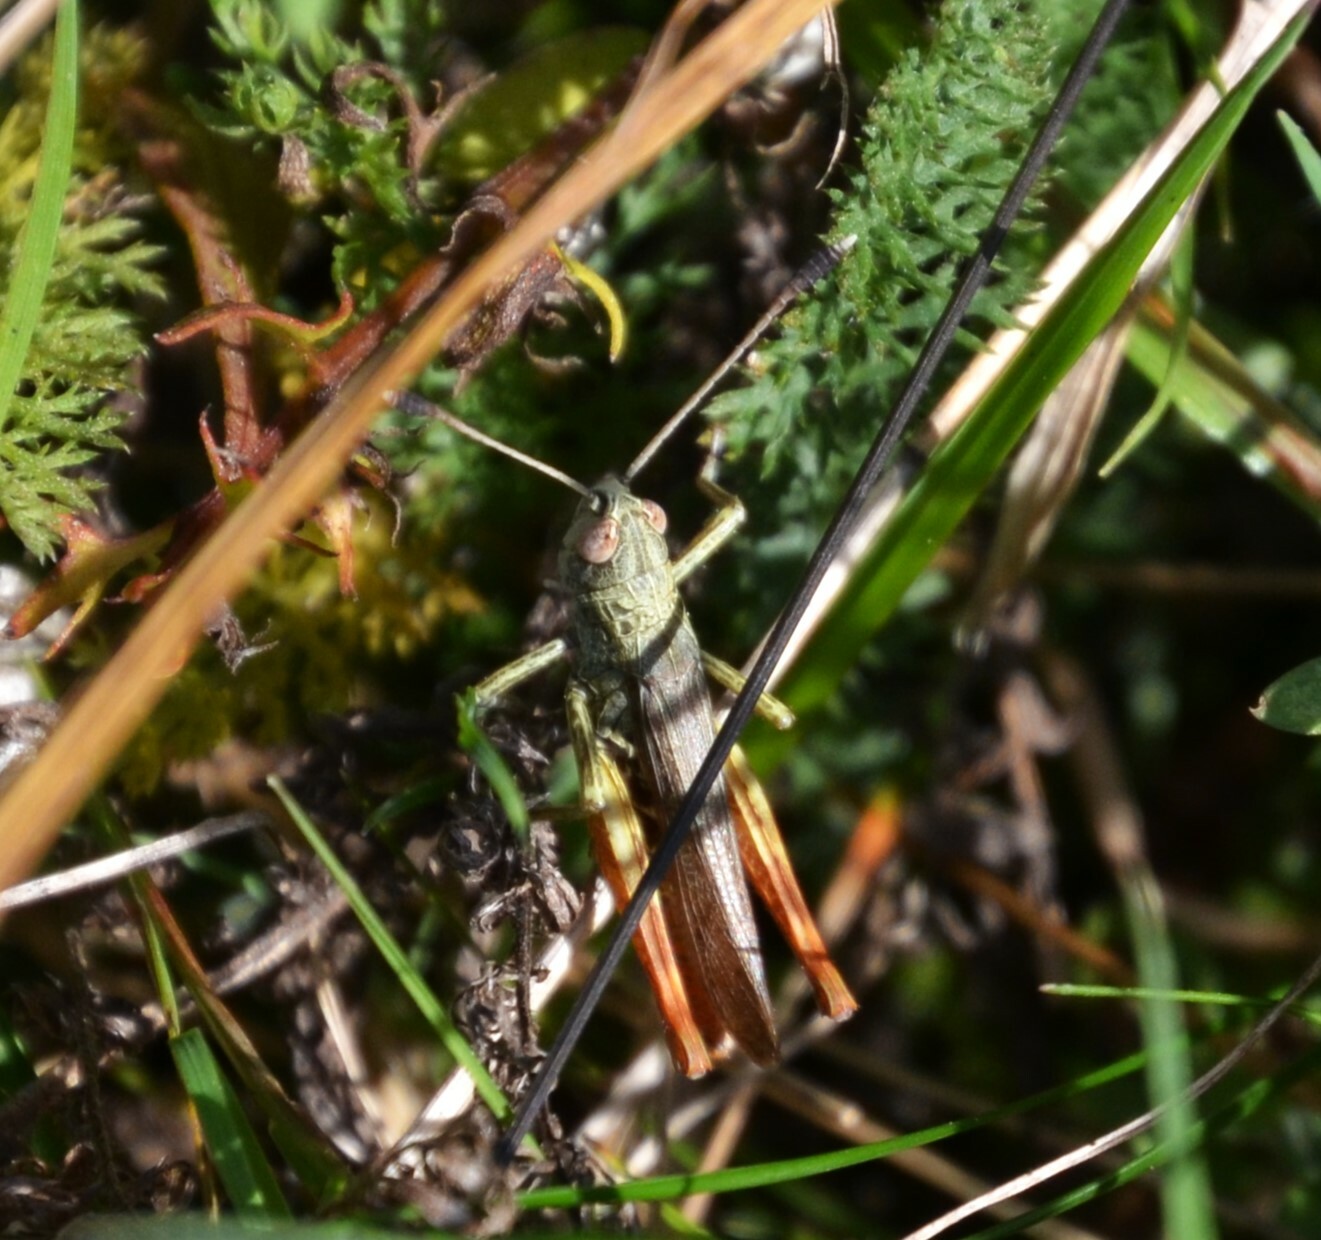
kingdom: Animalia
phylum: Arthropoda
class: Insecta
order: Orthoptera
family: Acrididae
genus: Gomphocerippus
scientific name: Gomphocerippus rufus
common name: Rufous grasshopper
